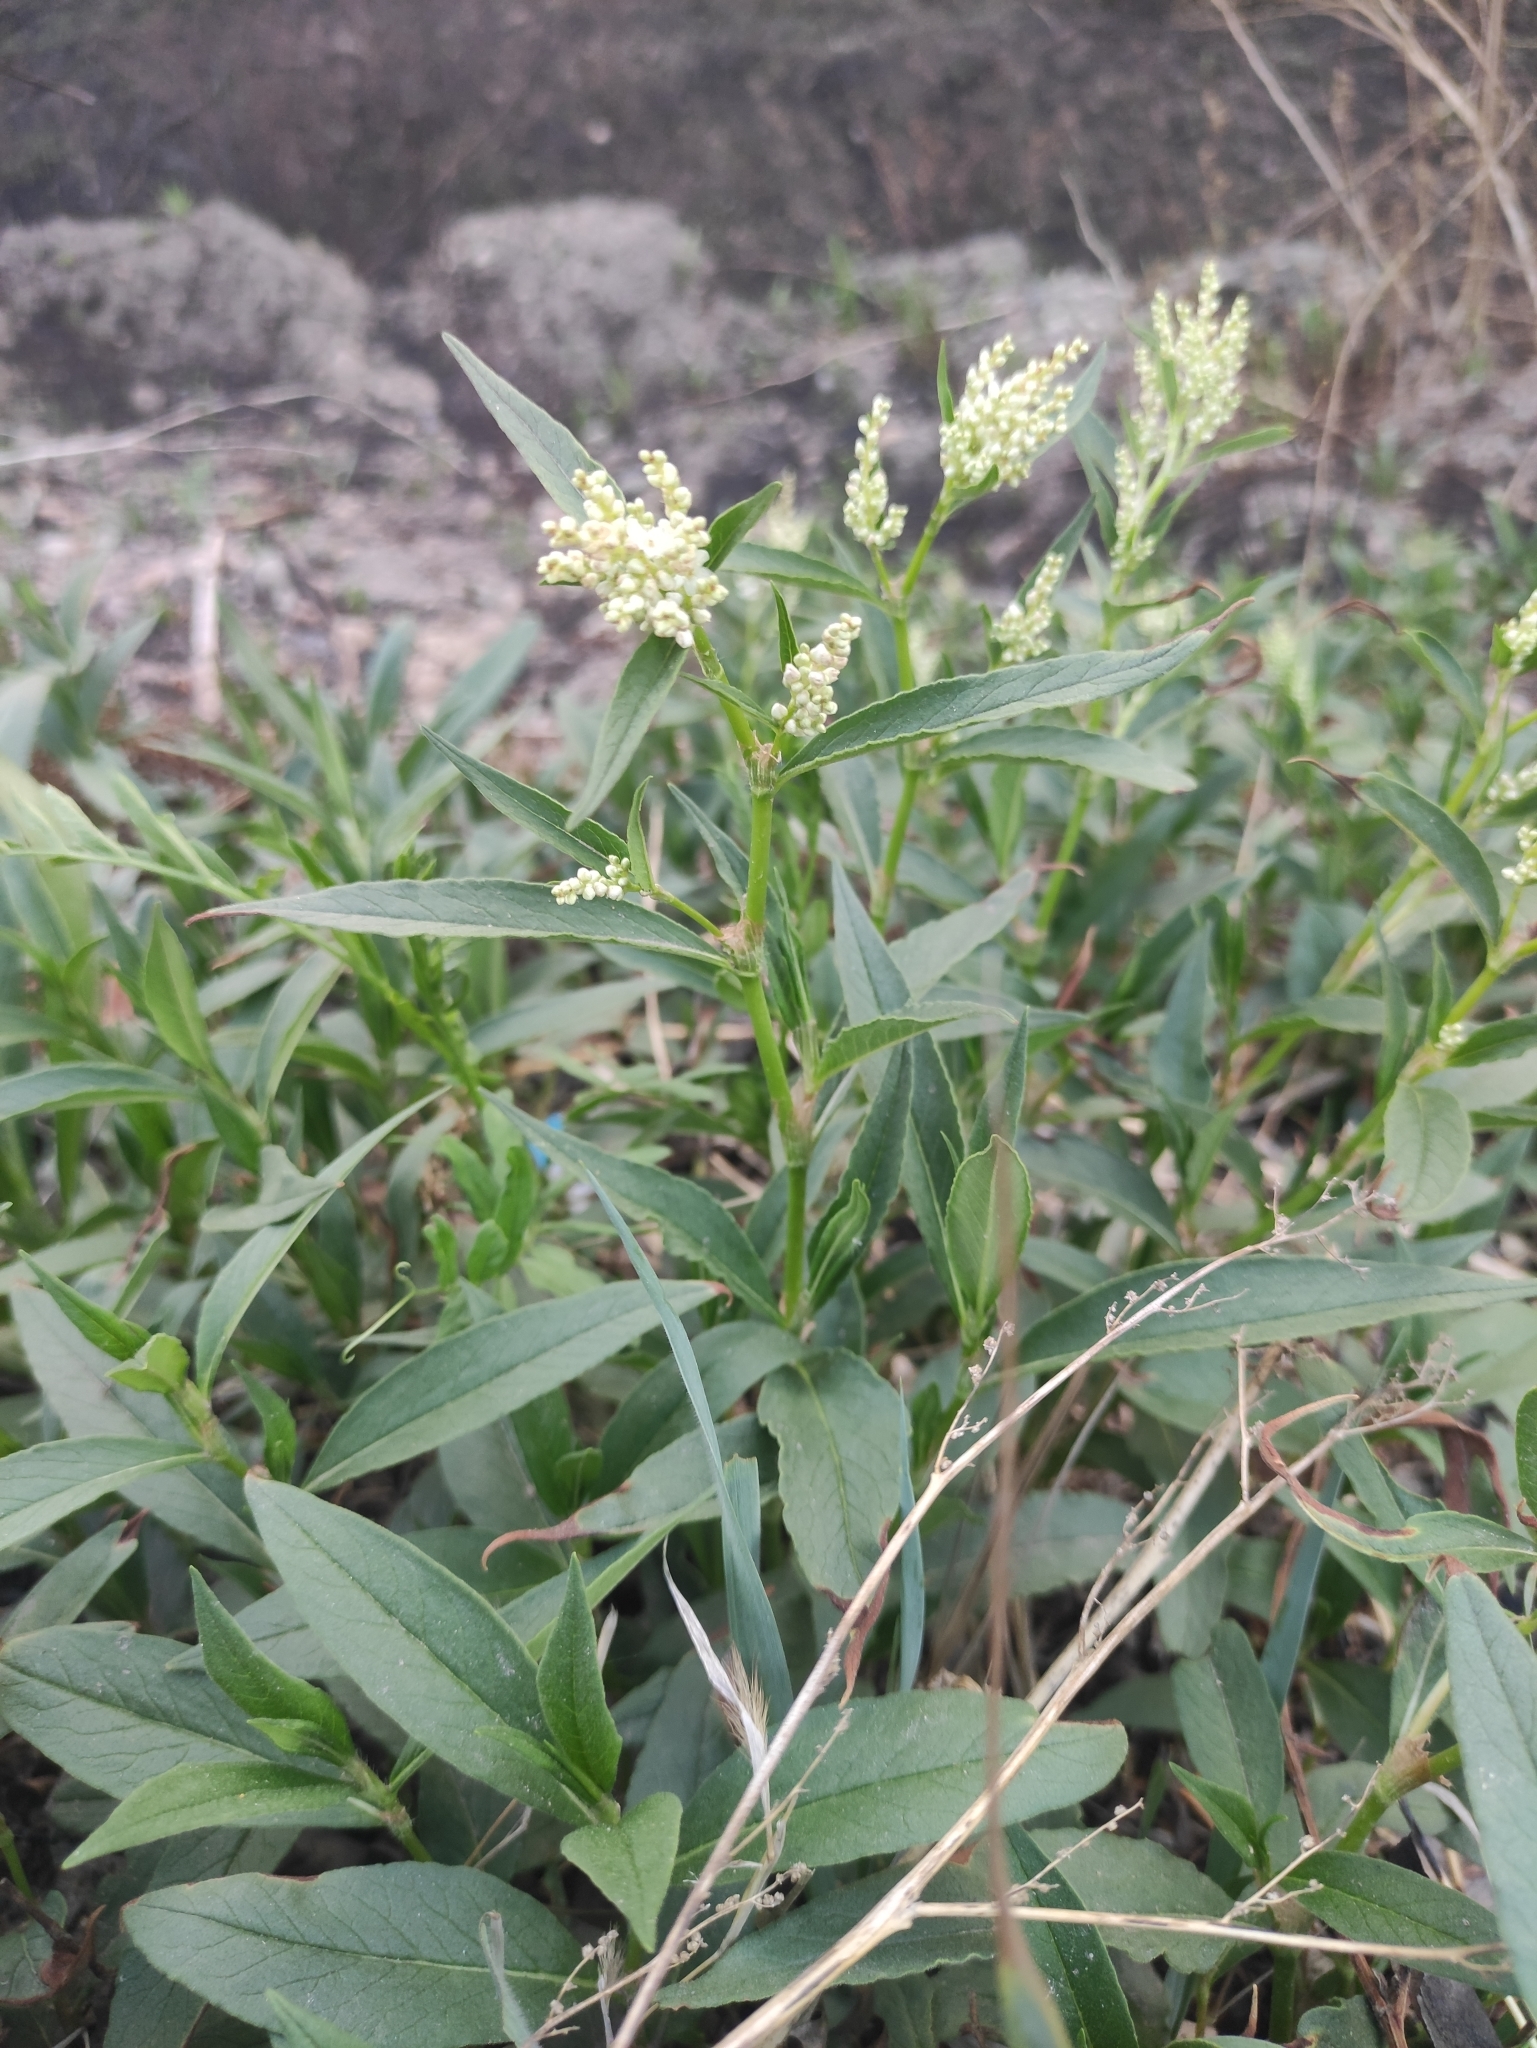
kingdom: Plantae
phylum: Tracheophyta
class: Magnoliopsida
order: Caryophyllales
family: Polygonaceae
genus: Koenigia
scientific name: Koenigia alpina
